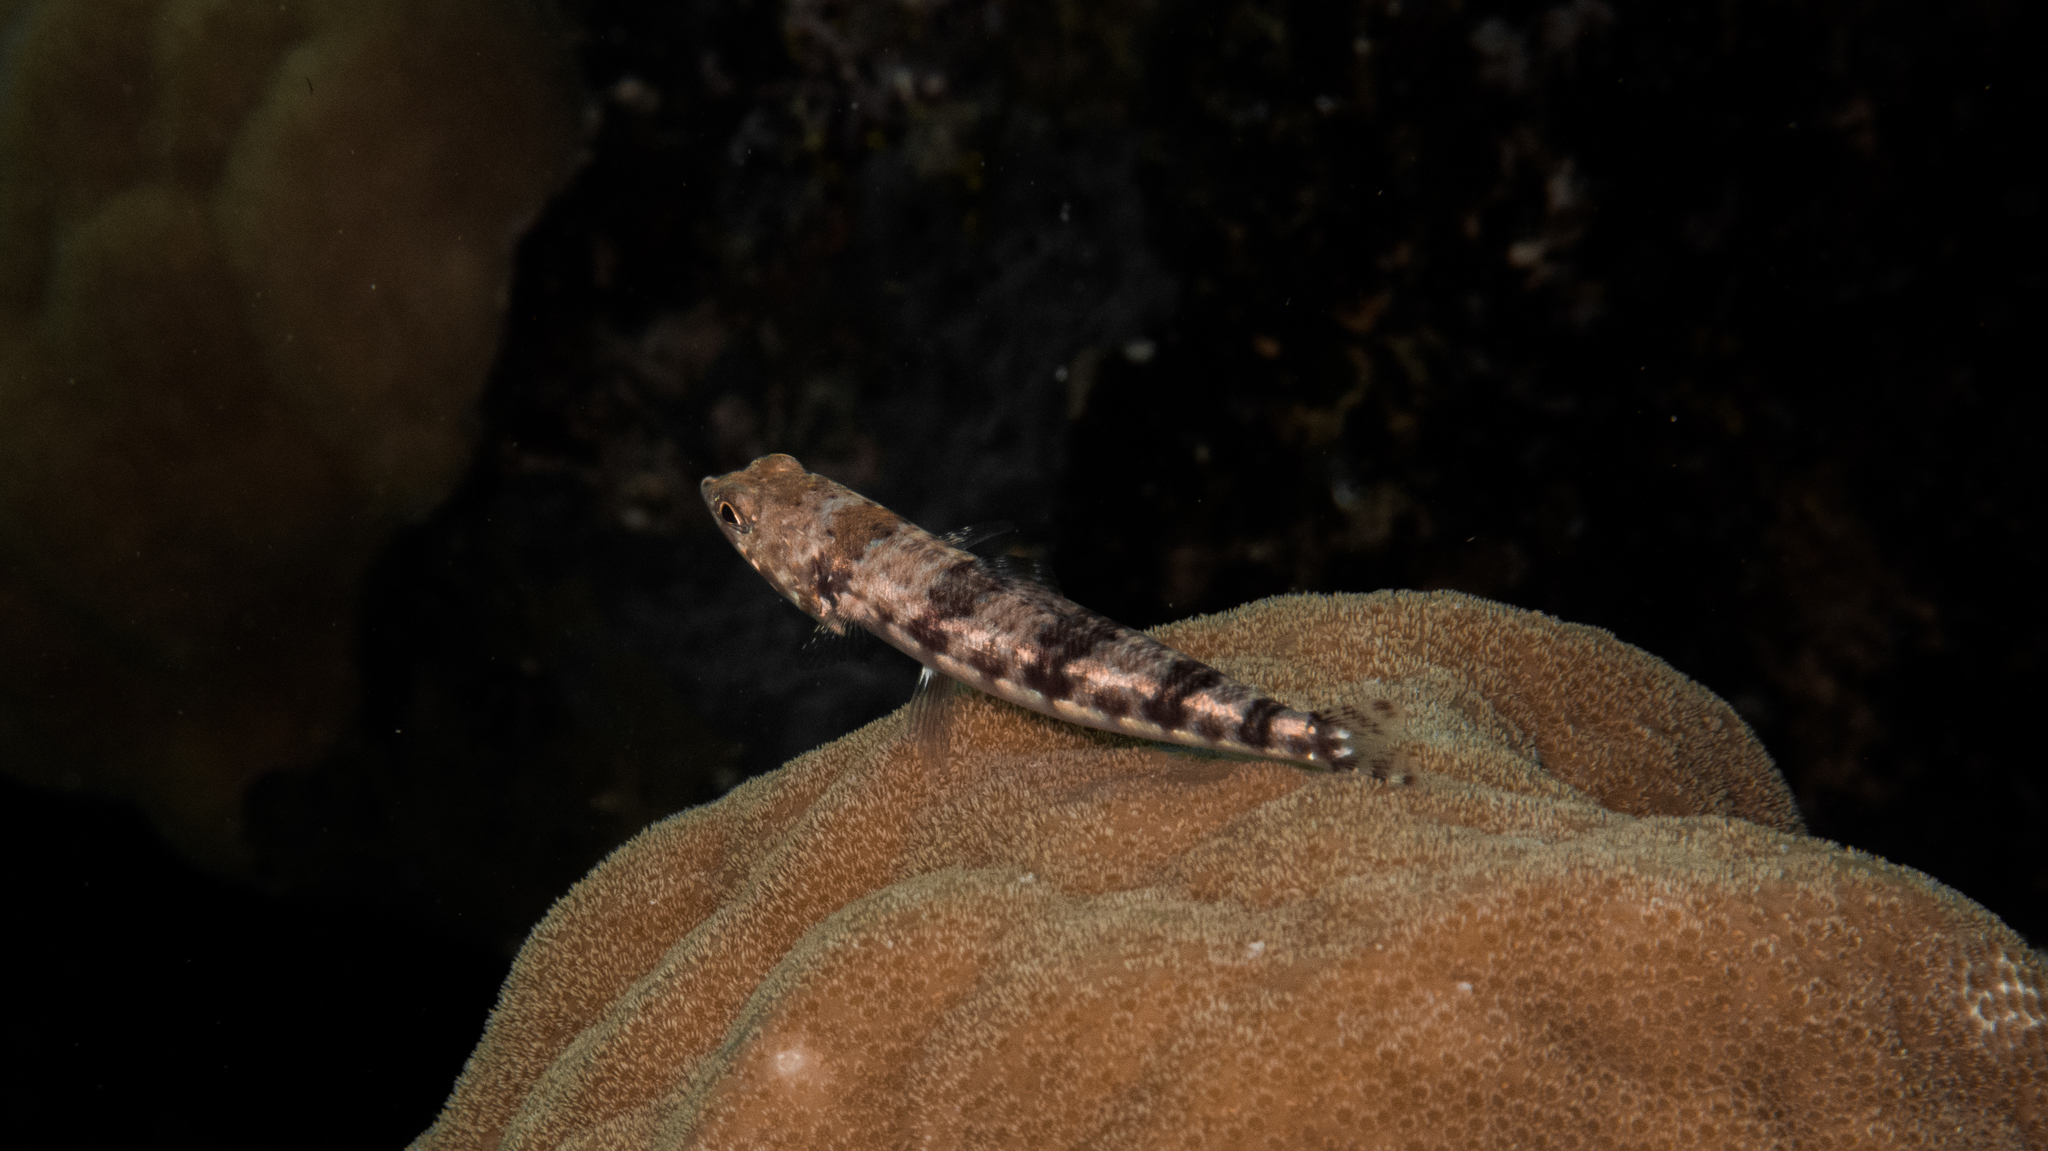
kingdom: Animalia
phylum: Chordata
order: Aulopiformes
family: Synodontidae
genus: Synodus
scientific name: Synodus variegatus
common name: Variegated lizardfish
